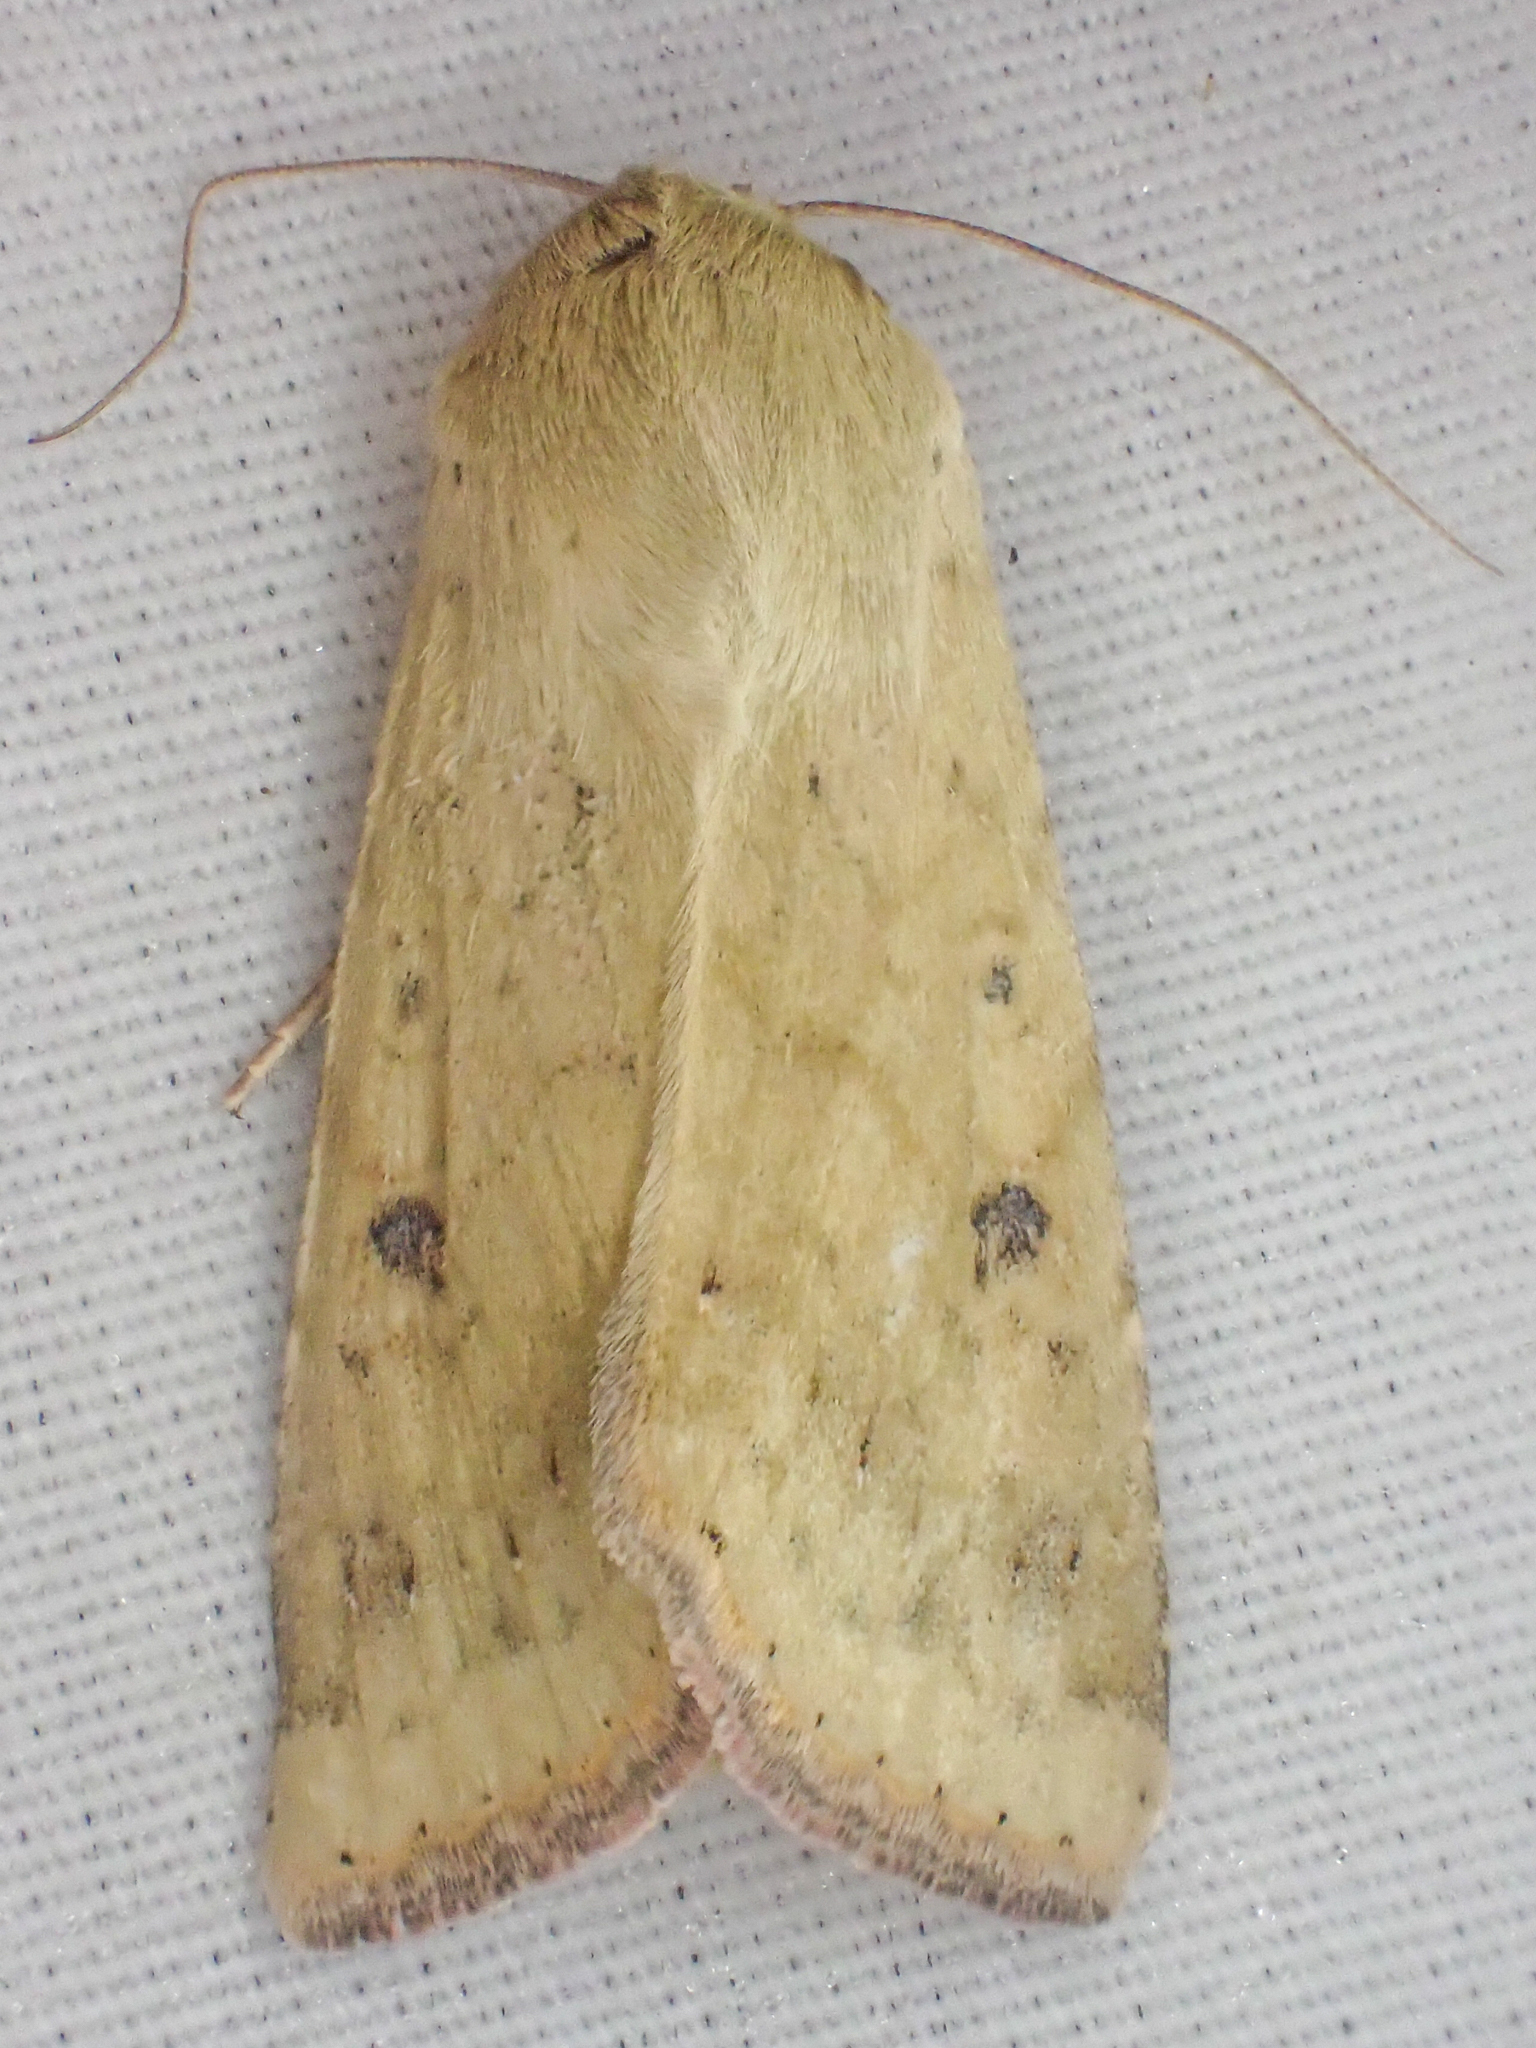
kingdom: Animalia
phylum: Arthropoda
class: Insecta
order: Lepidoptera
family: Noctuidae
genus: Helicoverpa
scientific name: Helicoverpa zea
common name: Bollworm
